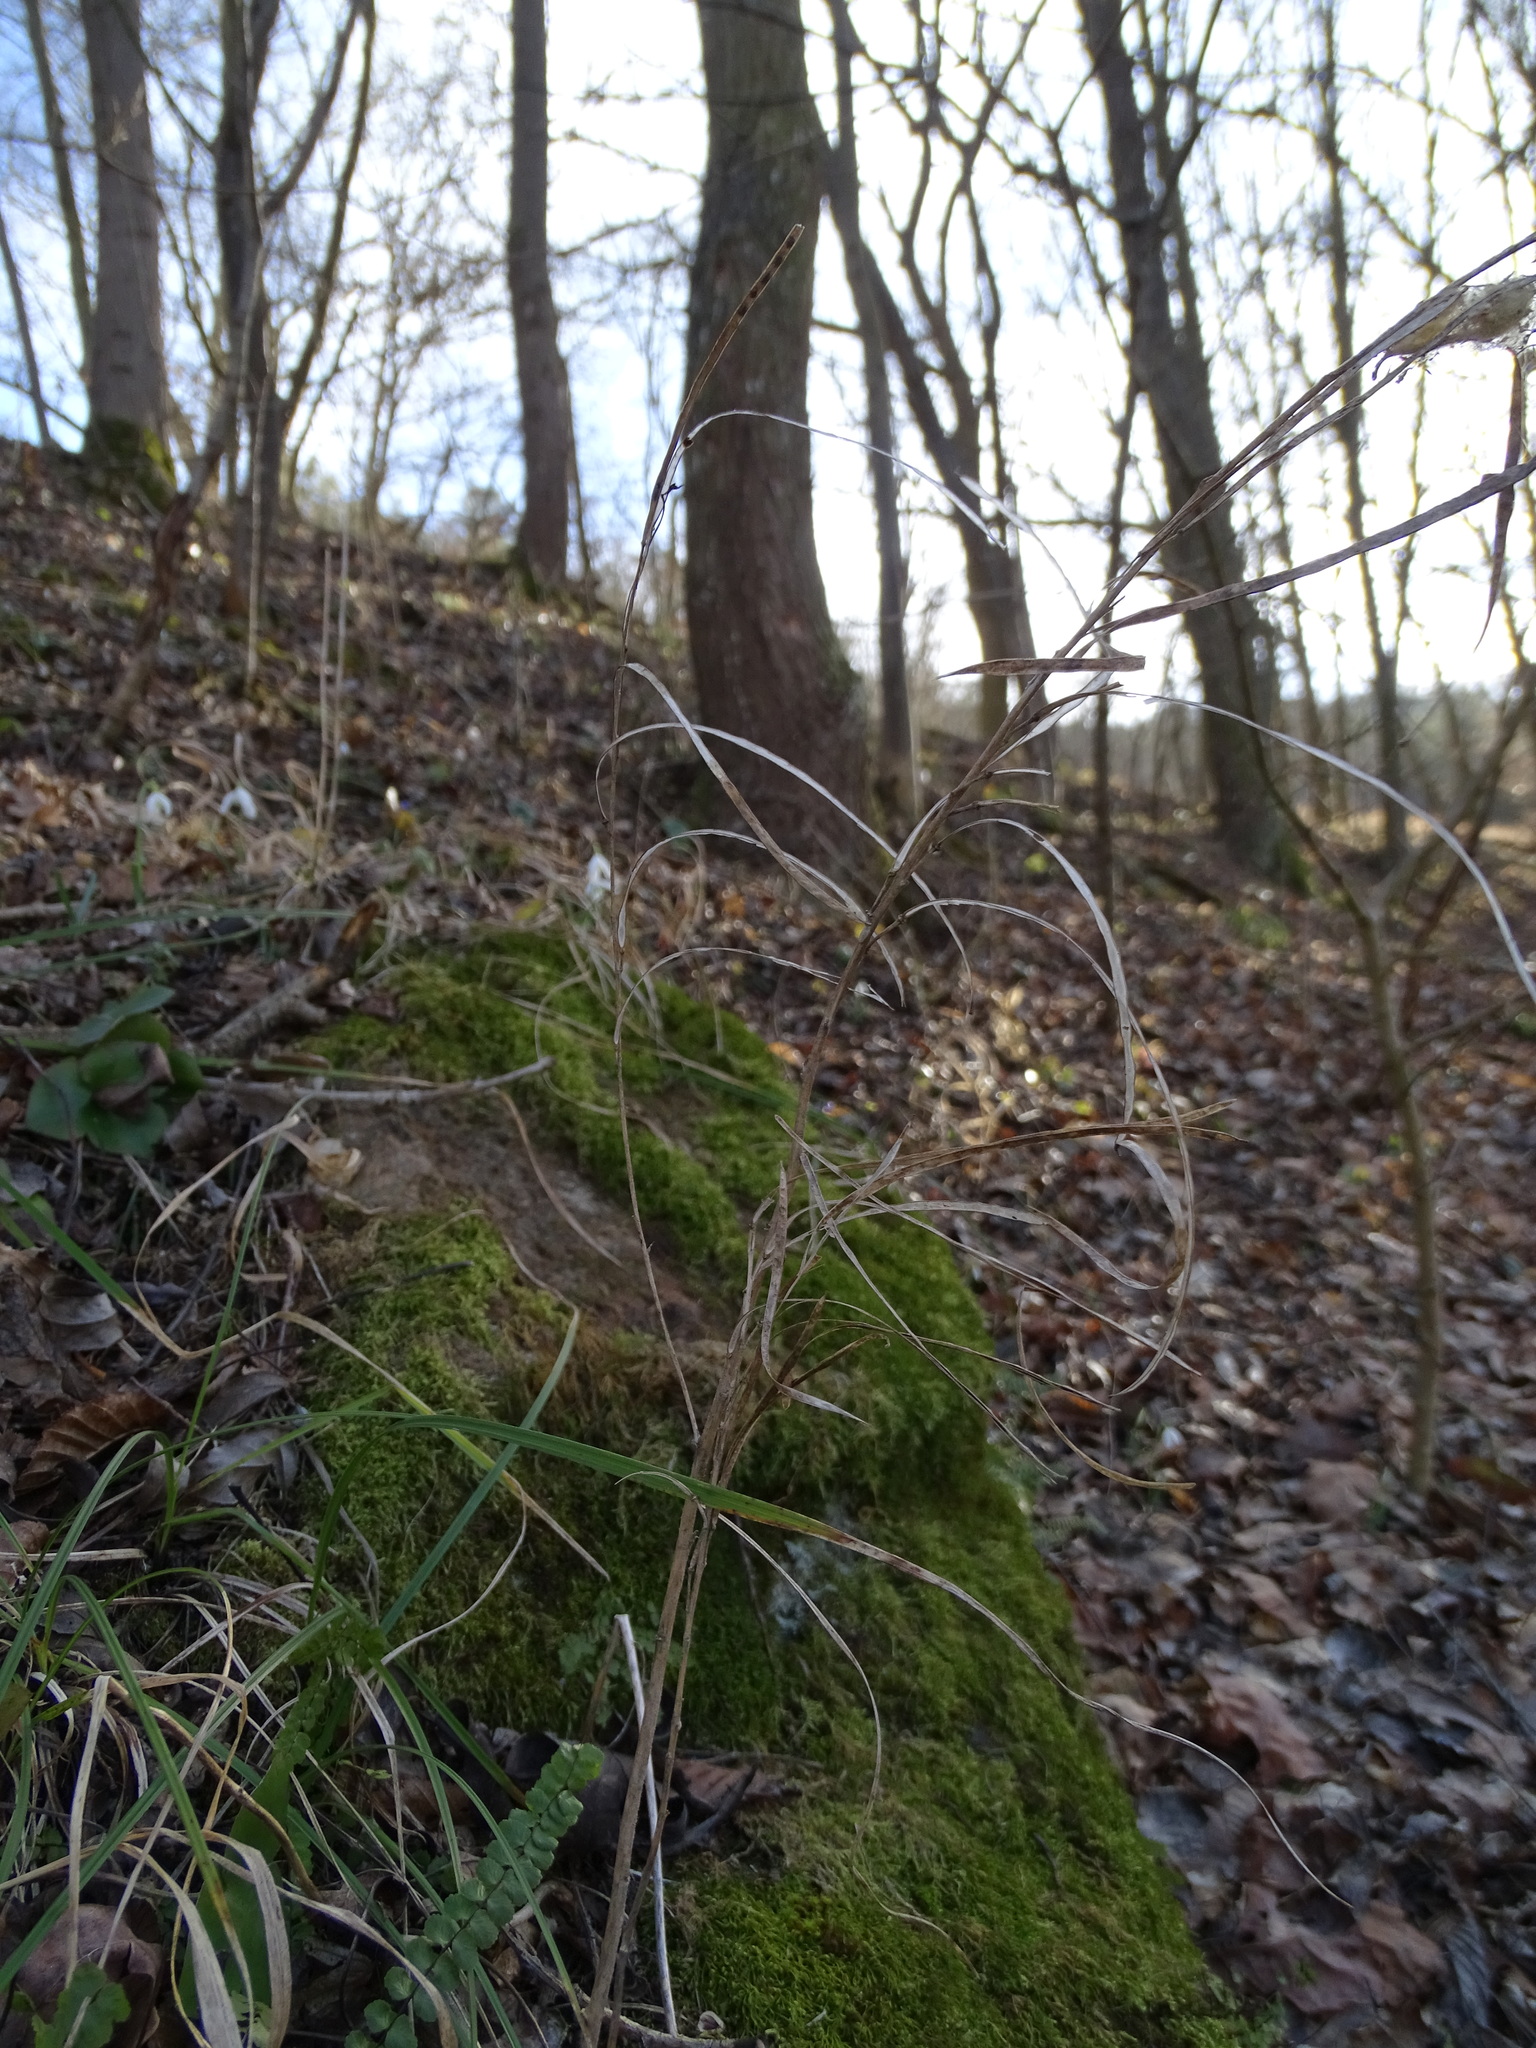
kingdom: Plantae
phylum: Tracheophyta
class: Magnoliopsida
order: Brassicales
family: Brassicaceae
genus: Pseudoturritis
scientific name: Pseudoturritis turrita
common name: Tower cress
